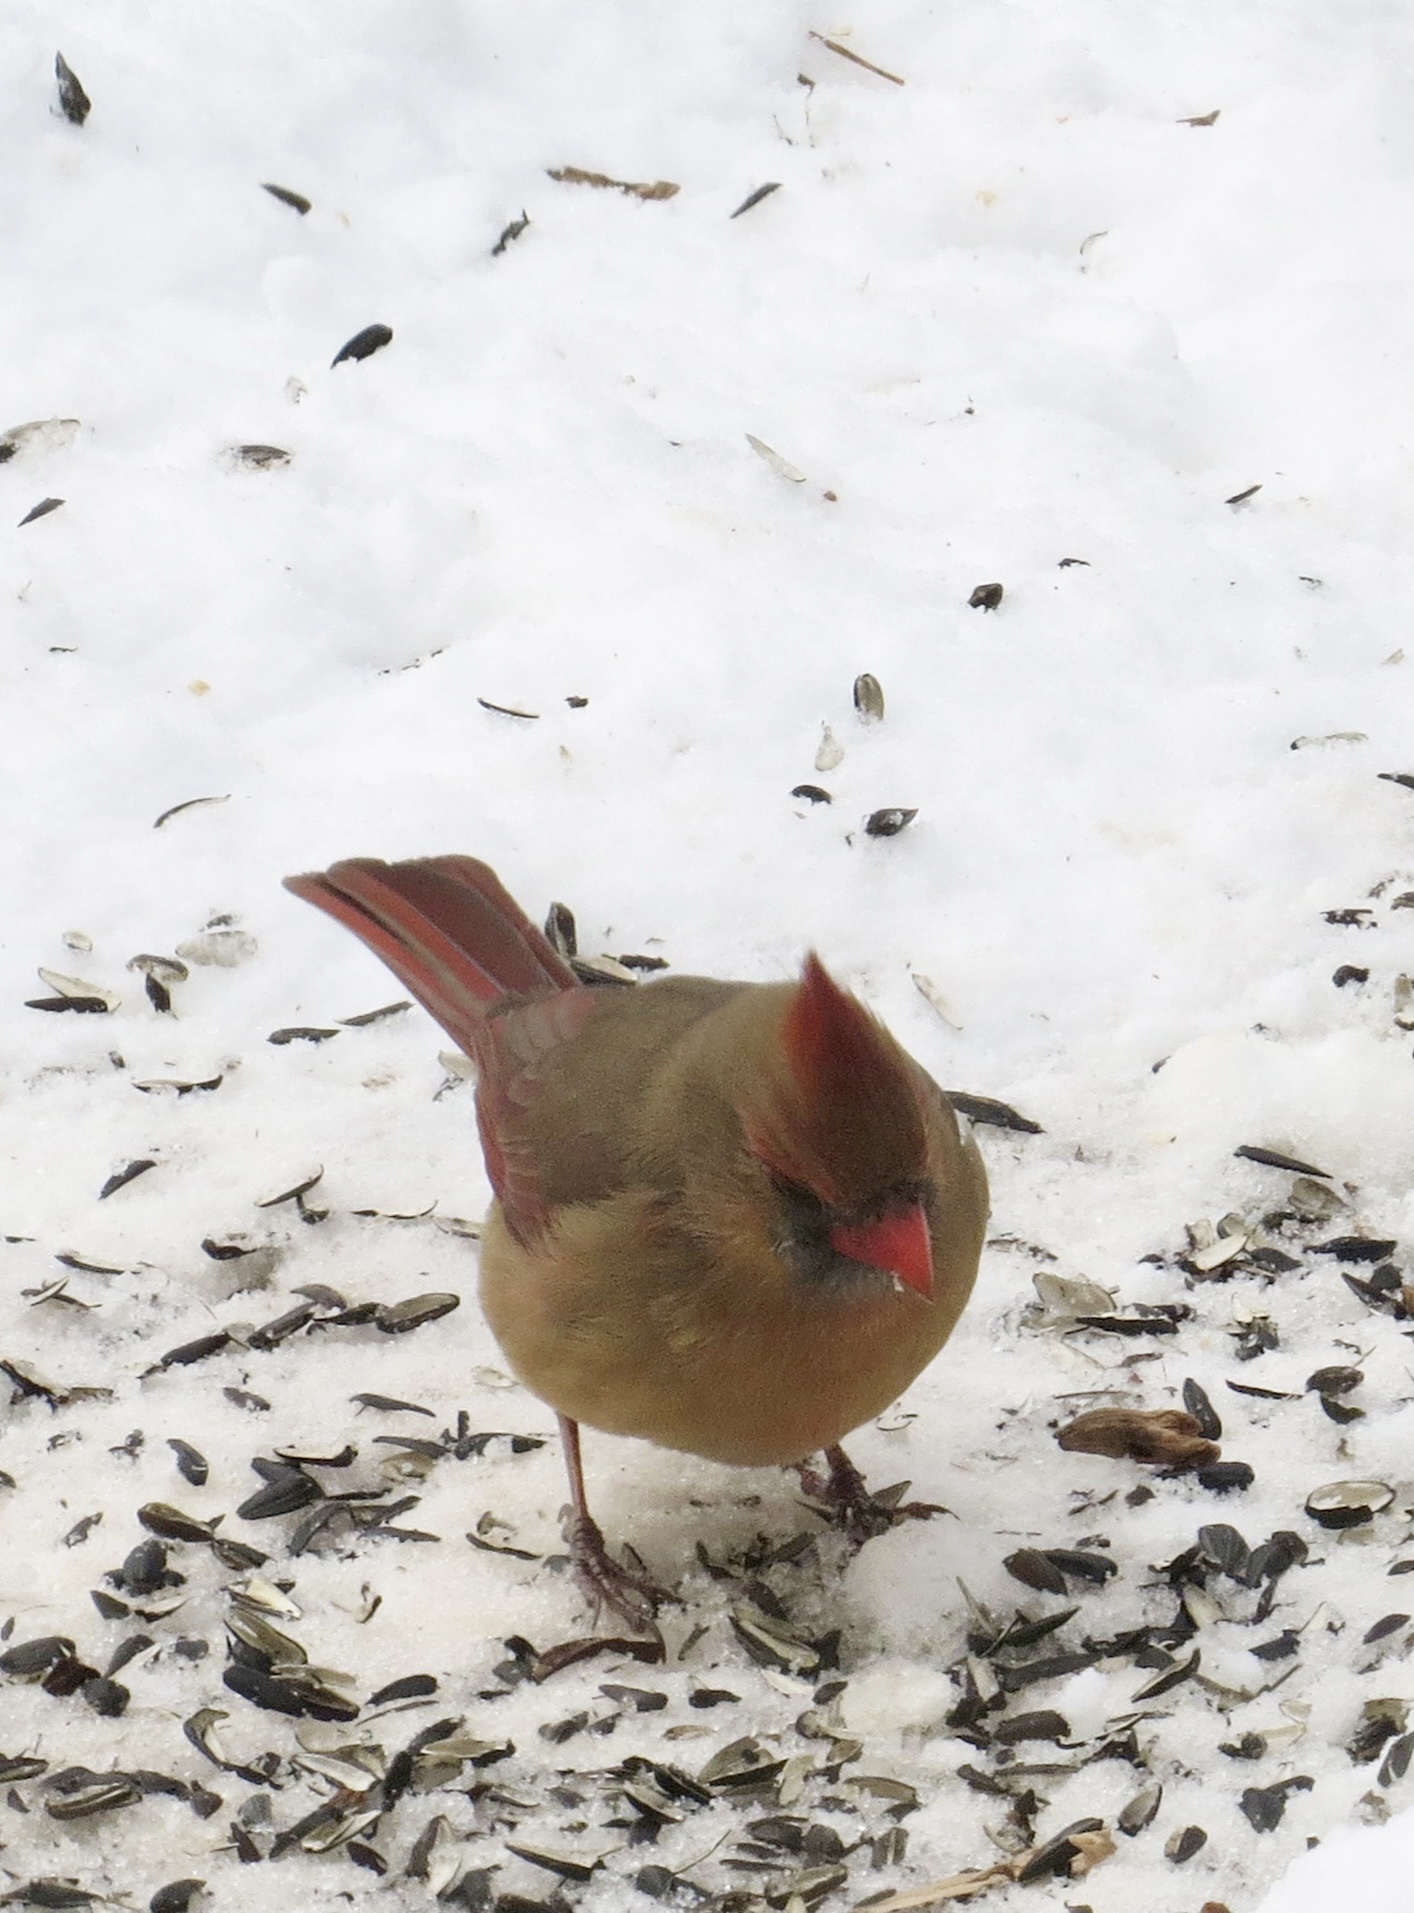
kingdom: Animalia
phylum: Chordata
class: Aves
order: Passeriformes
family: Cardinalidae
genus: Cardinalis
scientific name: Cardinalis cardinalis
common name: Northern cardinal
